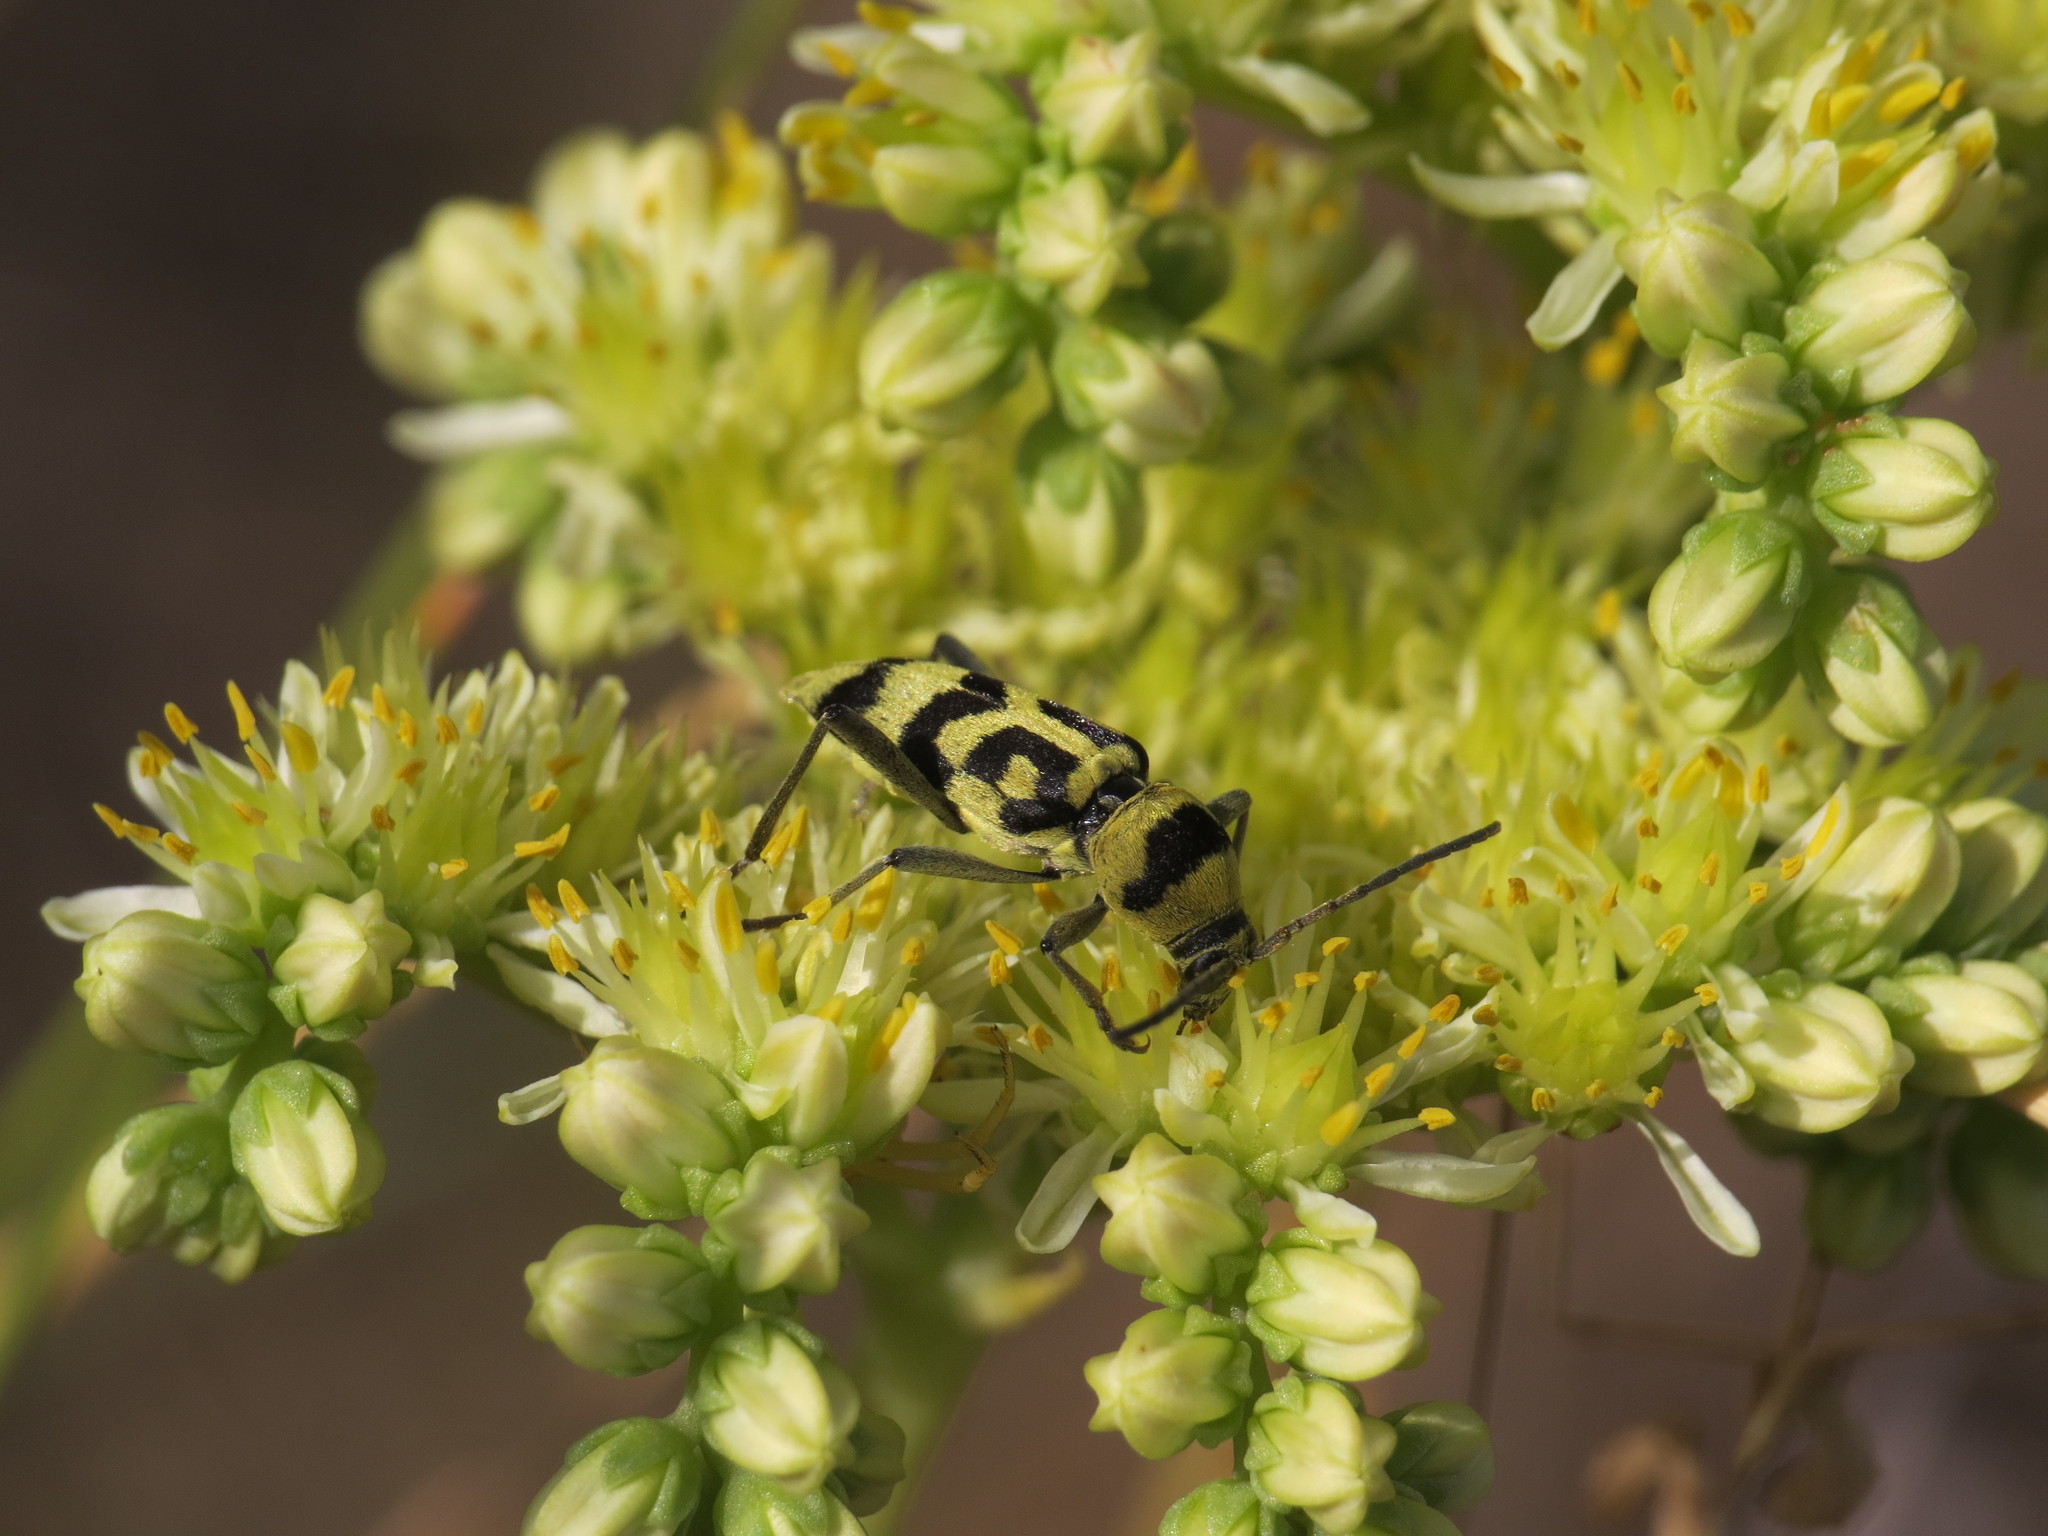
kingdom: Animalia
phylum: Arthropoda
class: Insecta
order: Coleoptera
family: Cerambycidae
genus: Chlorophorus
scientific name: Chlorophorus varius
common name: Grape wood borer
